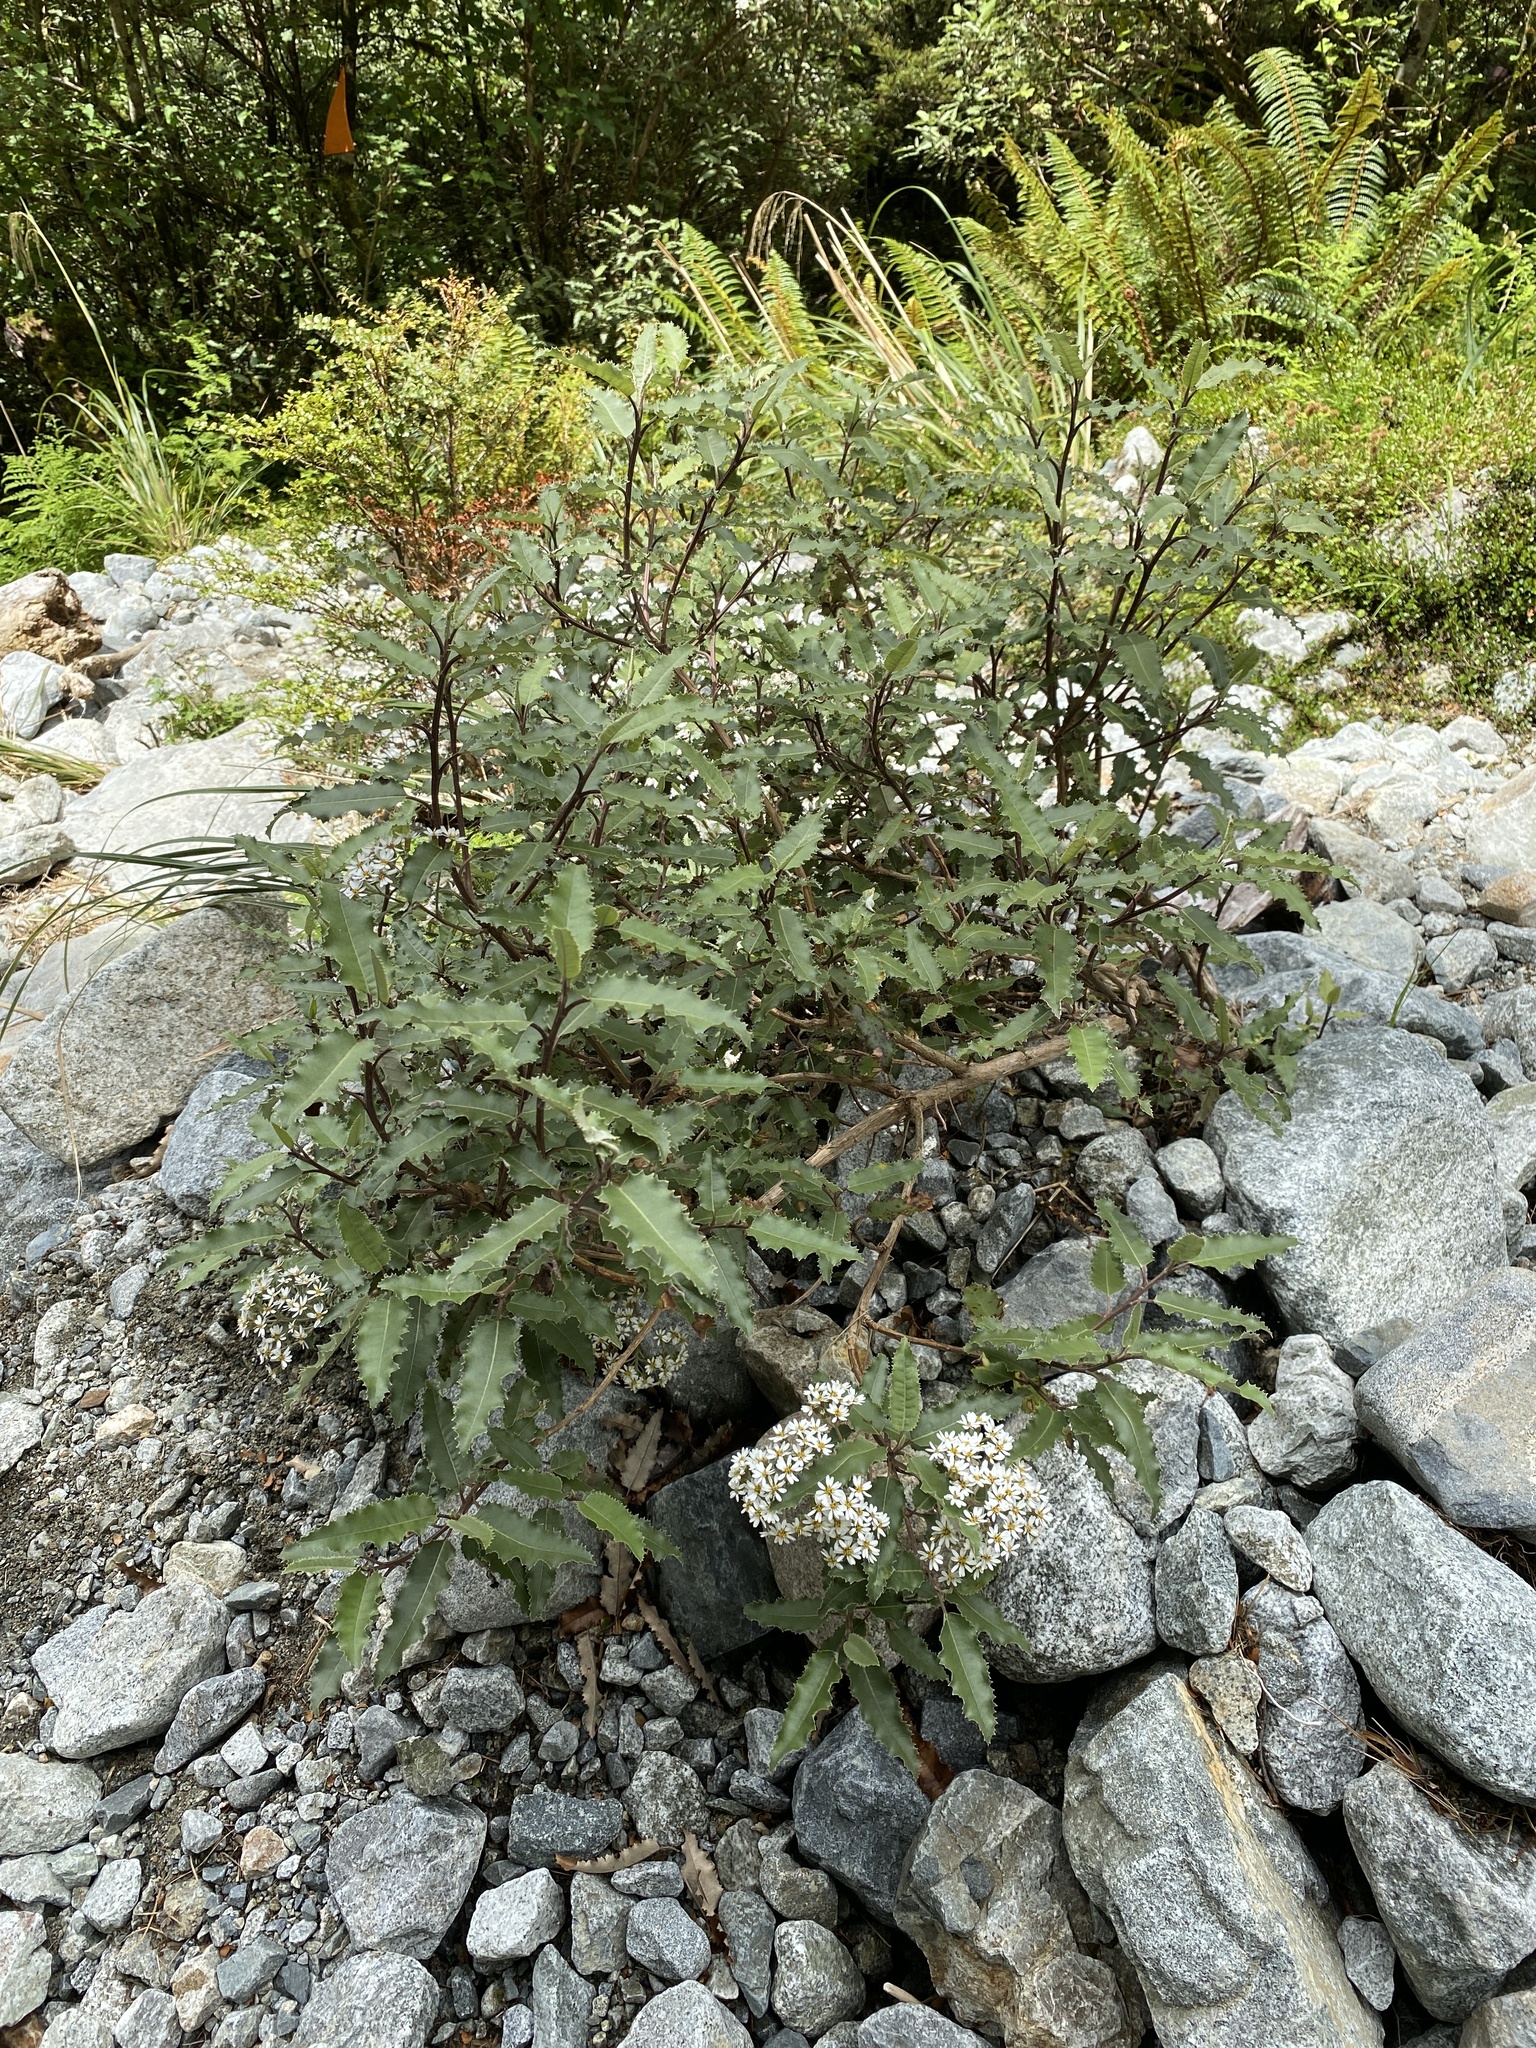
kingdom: Plantae
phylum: Tracheophyta
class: Magnoliopsida
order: Asterales
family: Asteraceae
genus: Olearia
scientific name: Olearia ilicifolia
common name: Maori-holly
